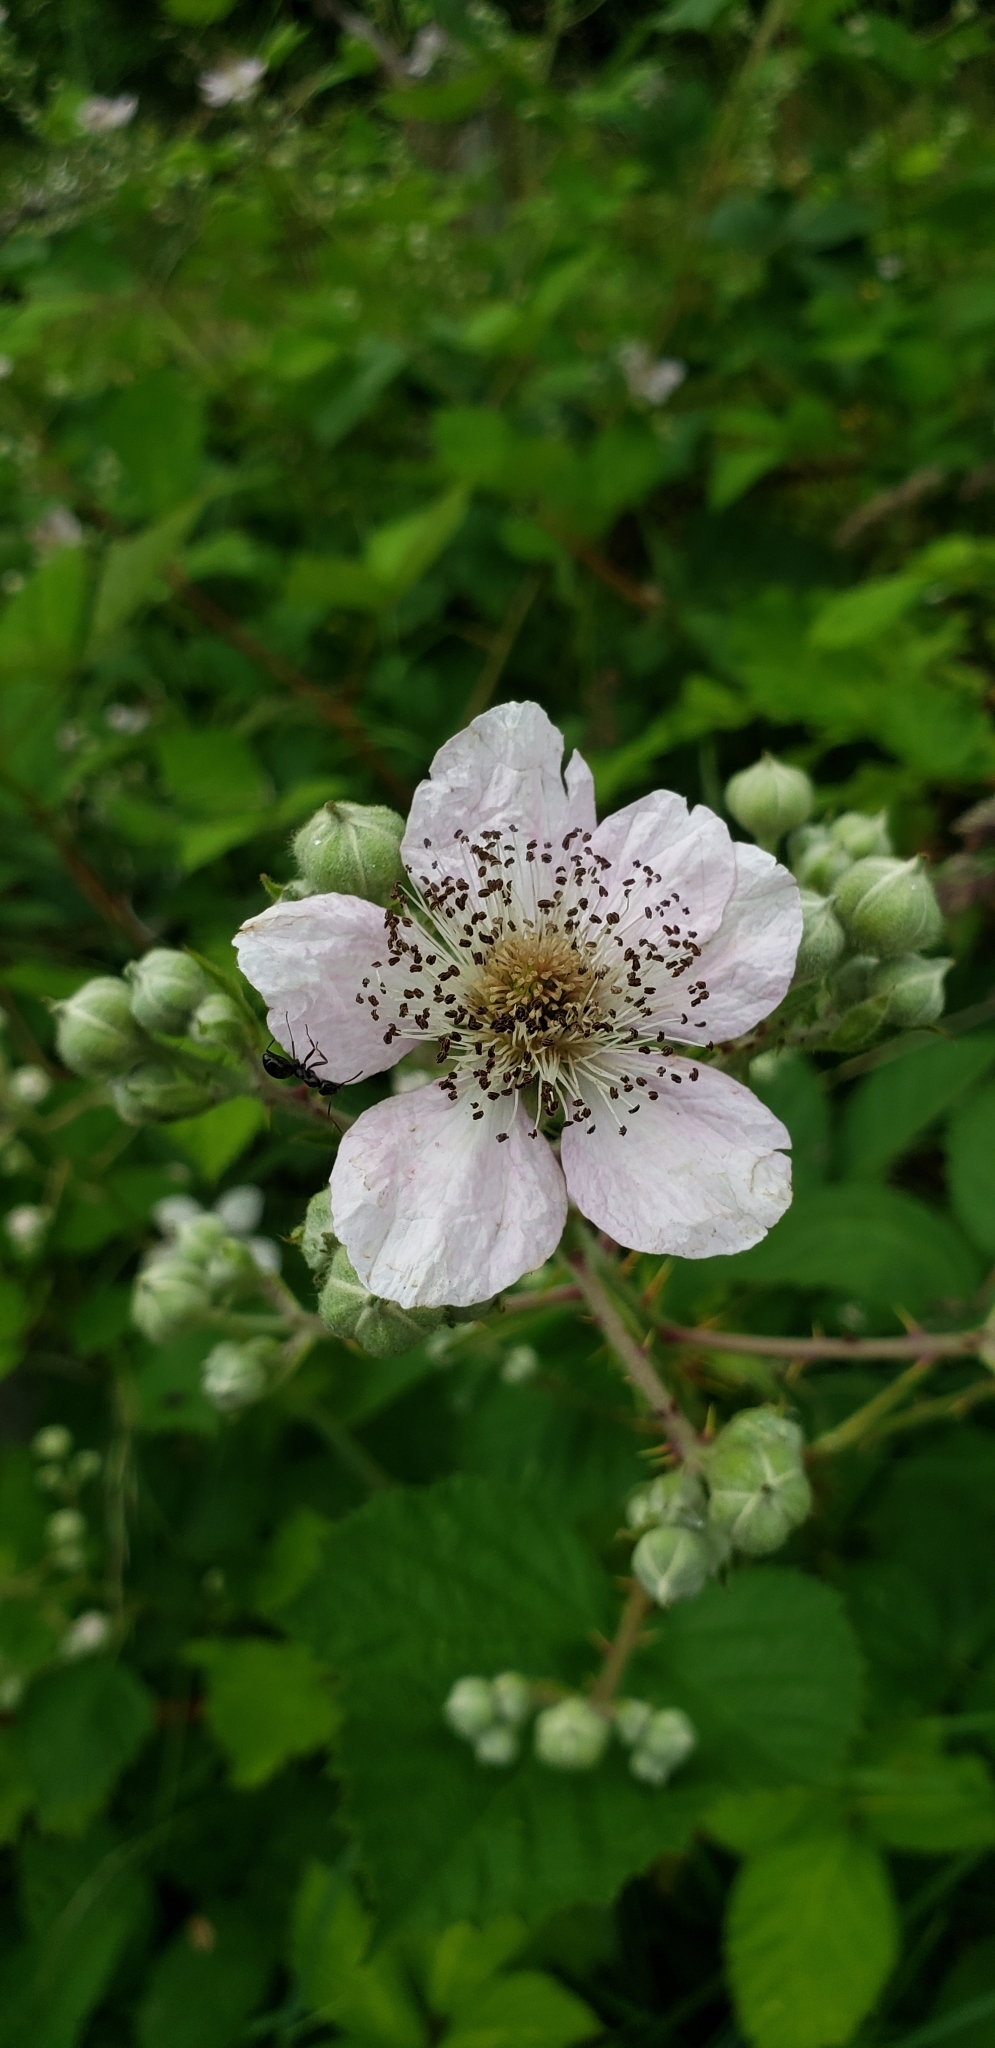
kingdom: Plantae
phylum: Tracheophyta
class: Magnoliopsida
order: Rosales
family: Rosaceae
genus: Rubus
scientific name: Rubus bifrons
